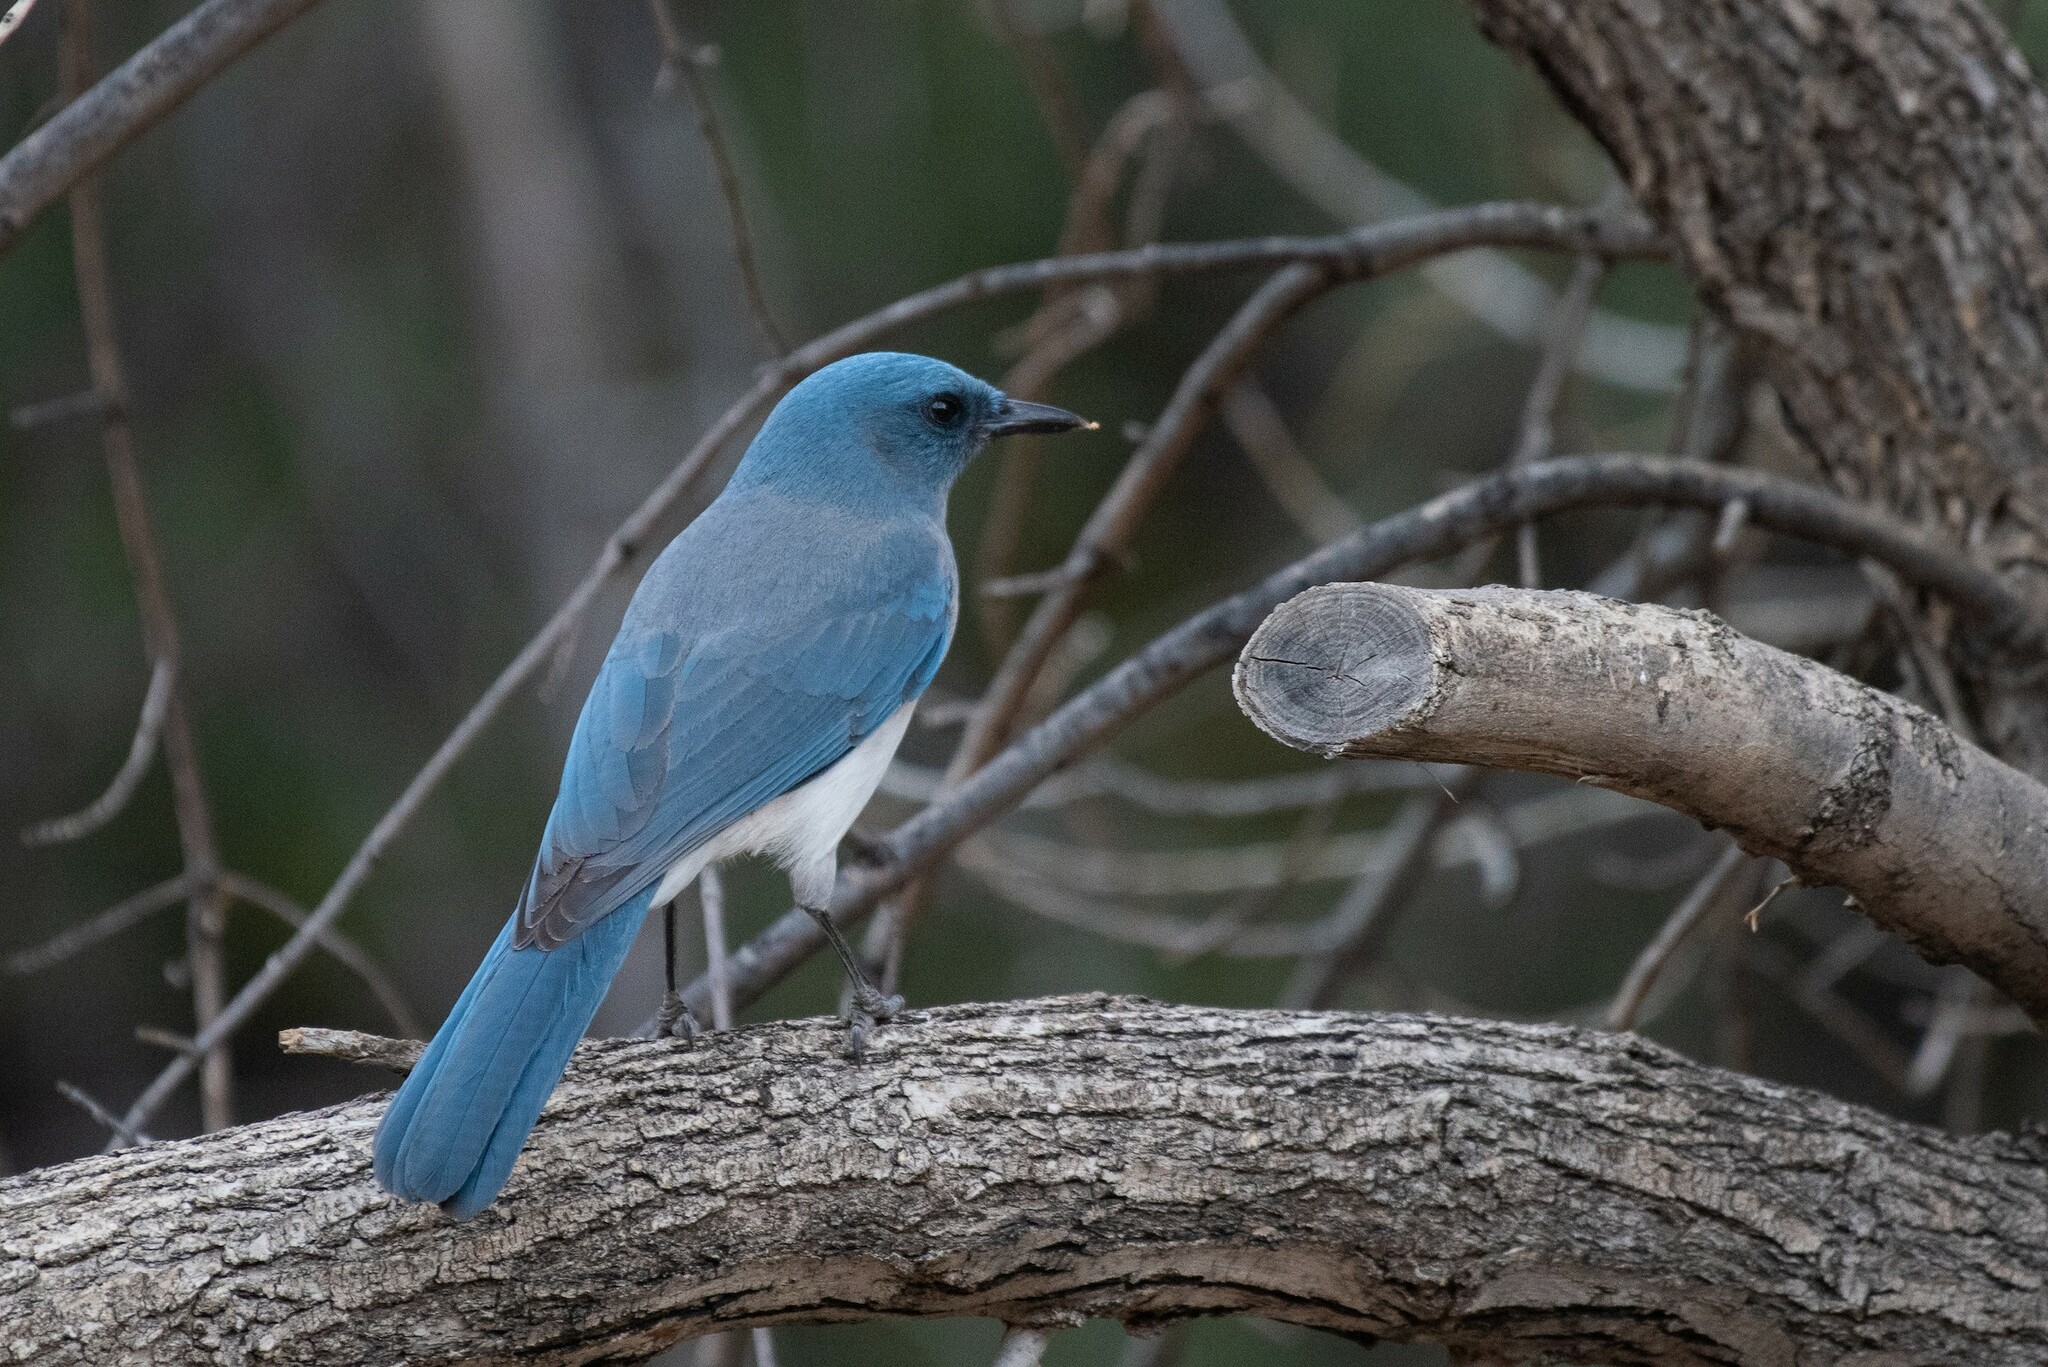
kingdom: Animalia
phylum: Chordata
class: Aves
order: Passeriformes
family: Corvidae
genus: Aphelocoma
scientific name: Aphelocoma wollweberi
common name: Mexican jay
